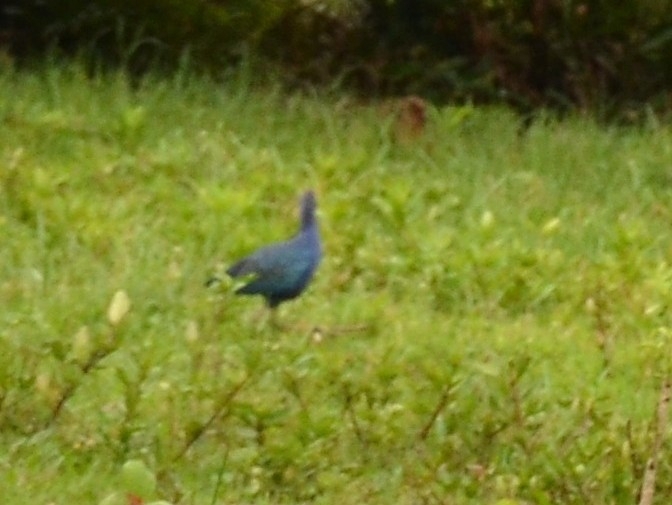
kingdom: Animalia
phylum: Chordata
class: Aves
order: Gruiformes
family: Rallidae
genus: Porphyrio
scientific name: Porphyrio porphyrio
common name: Purple swamphen
